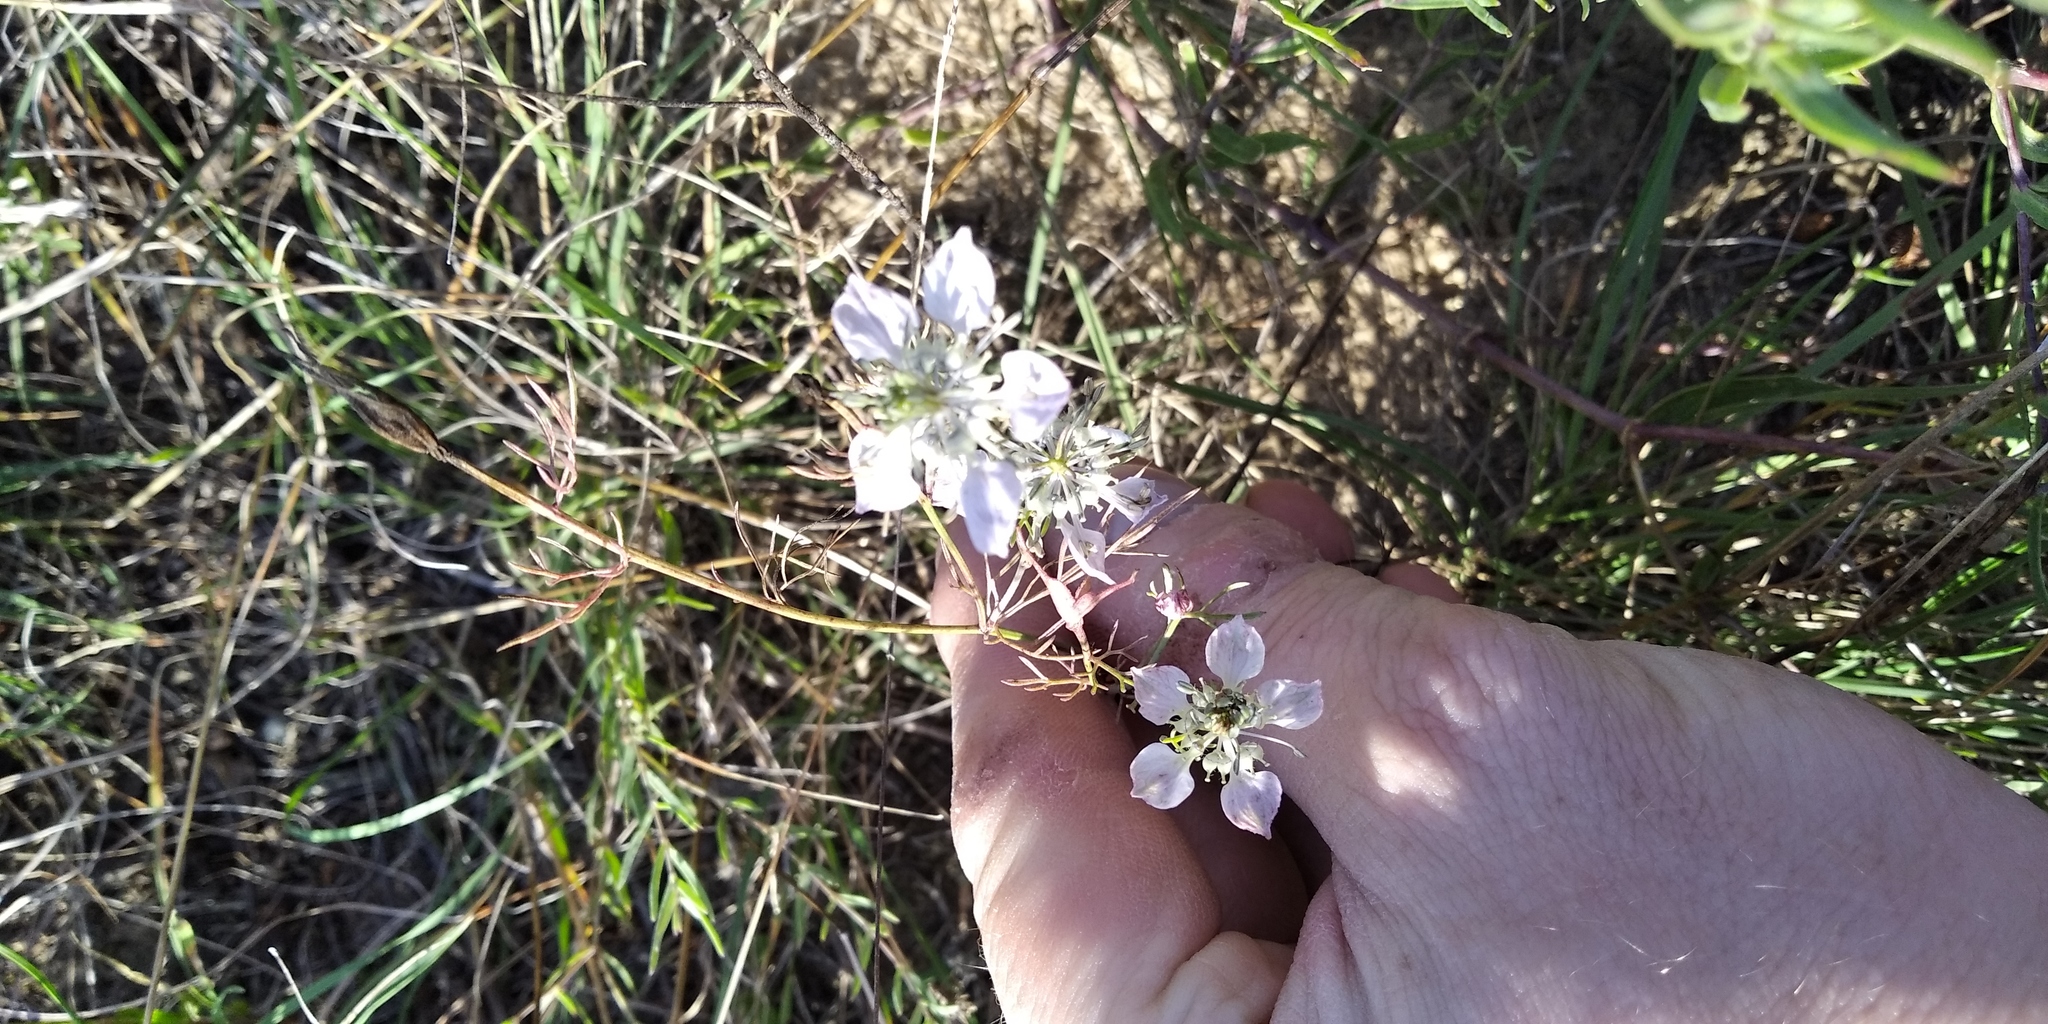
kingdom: Plantae
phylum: Tracheophyta
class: Magnoliopsida
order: Ranunculales
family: Ranunculaceae
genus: Nigella
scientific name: Nigella arvensis
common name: Wild fennel-flower
